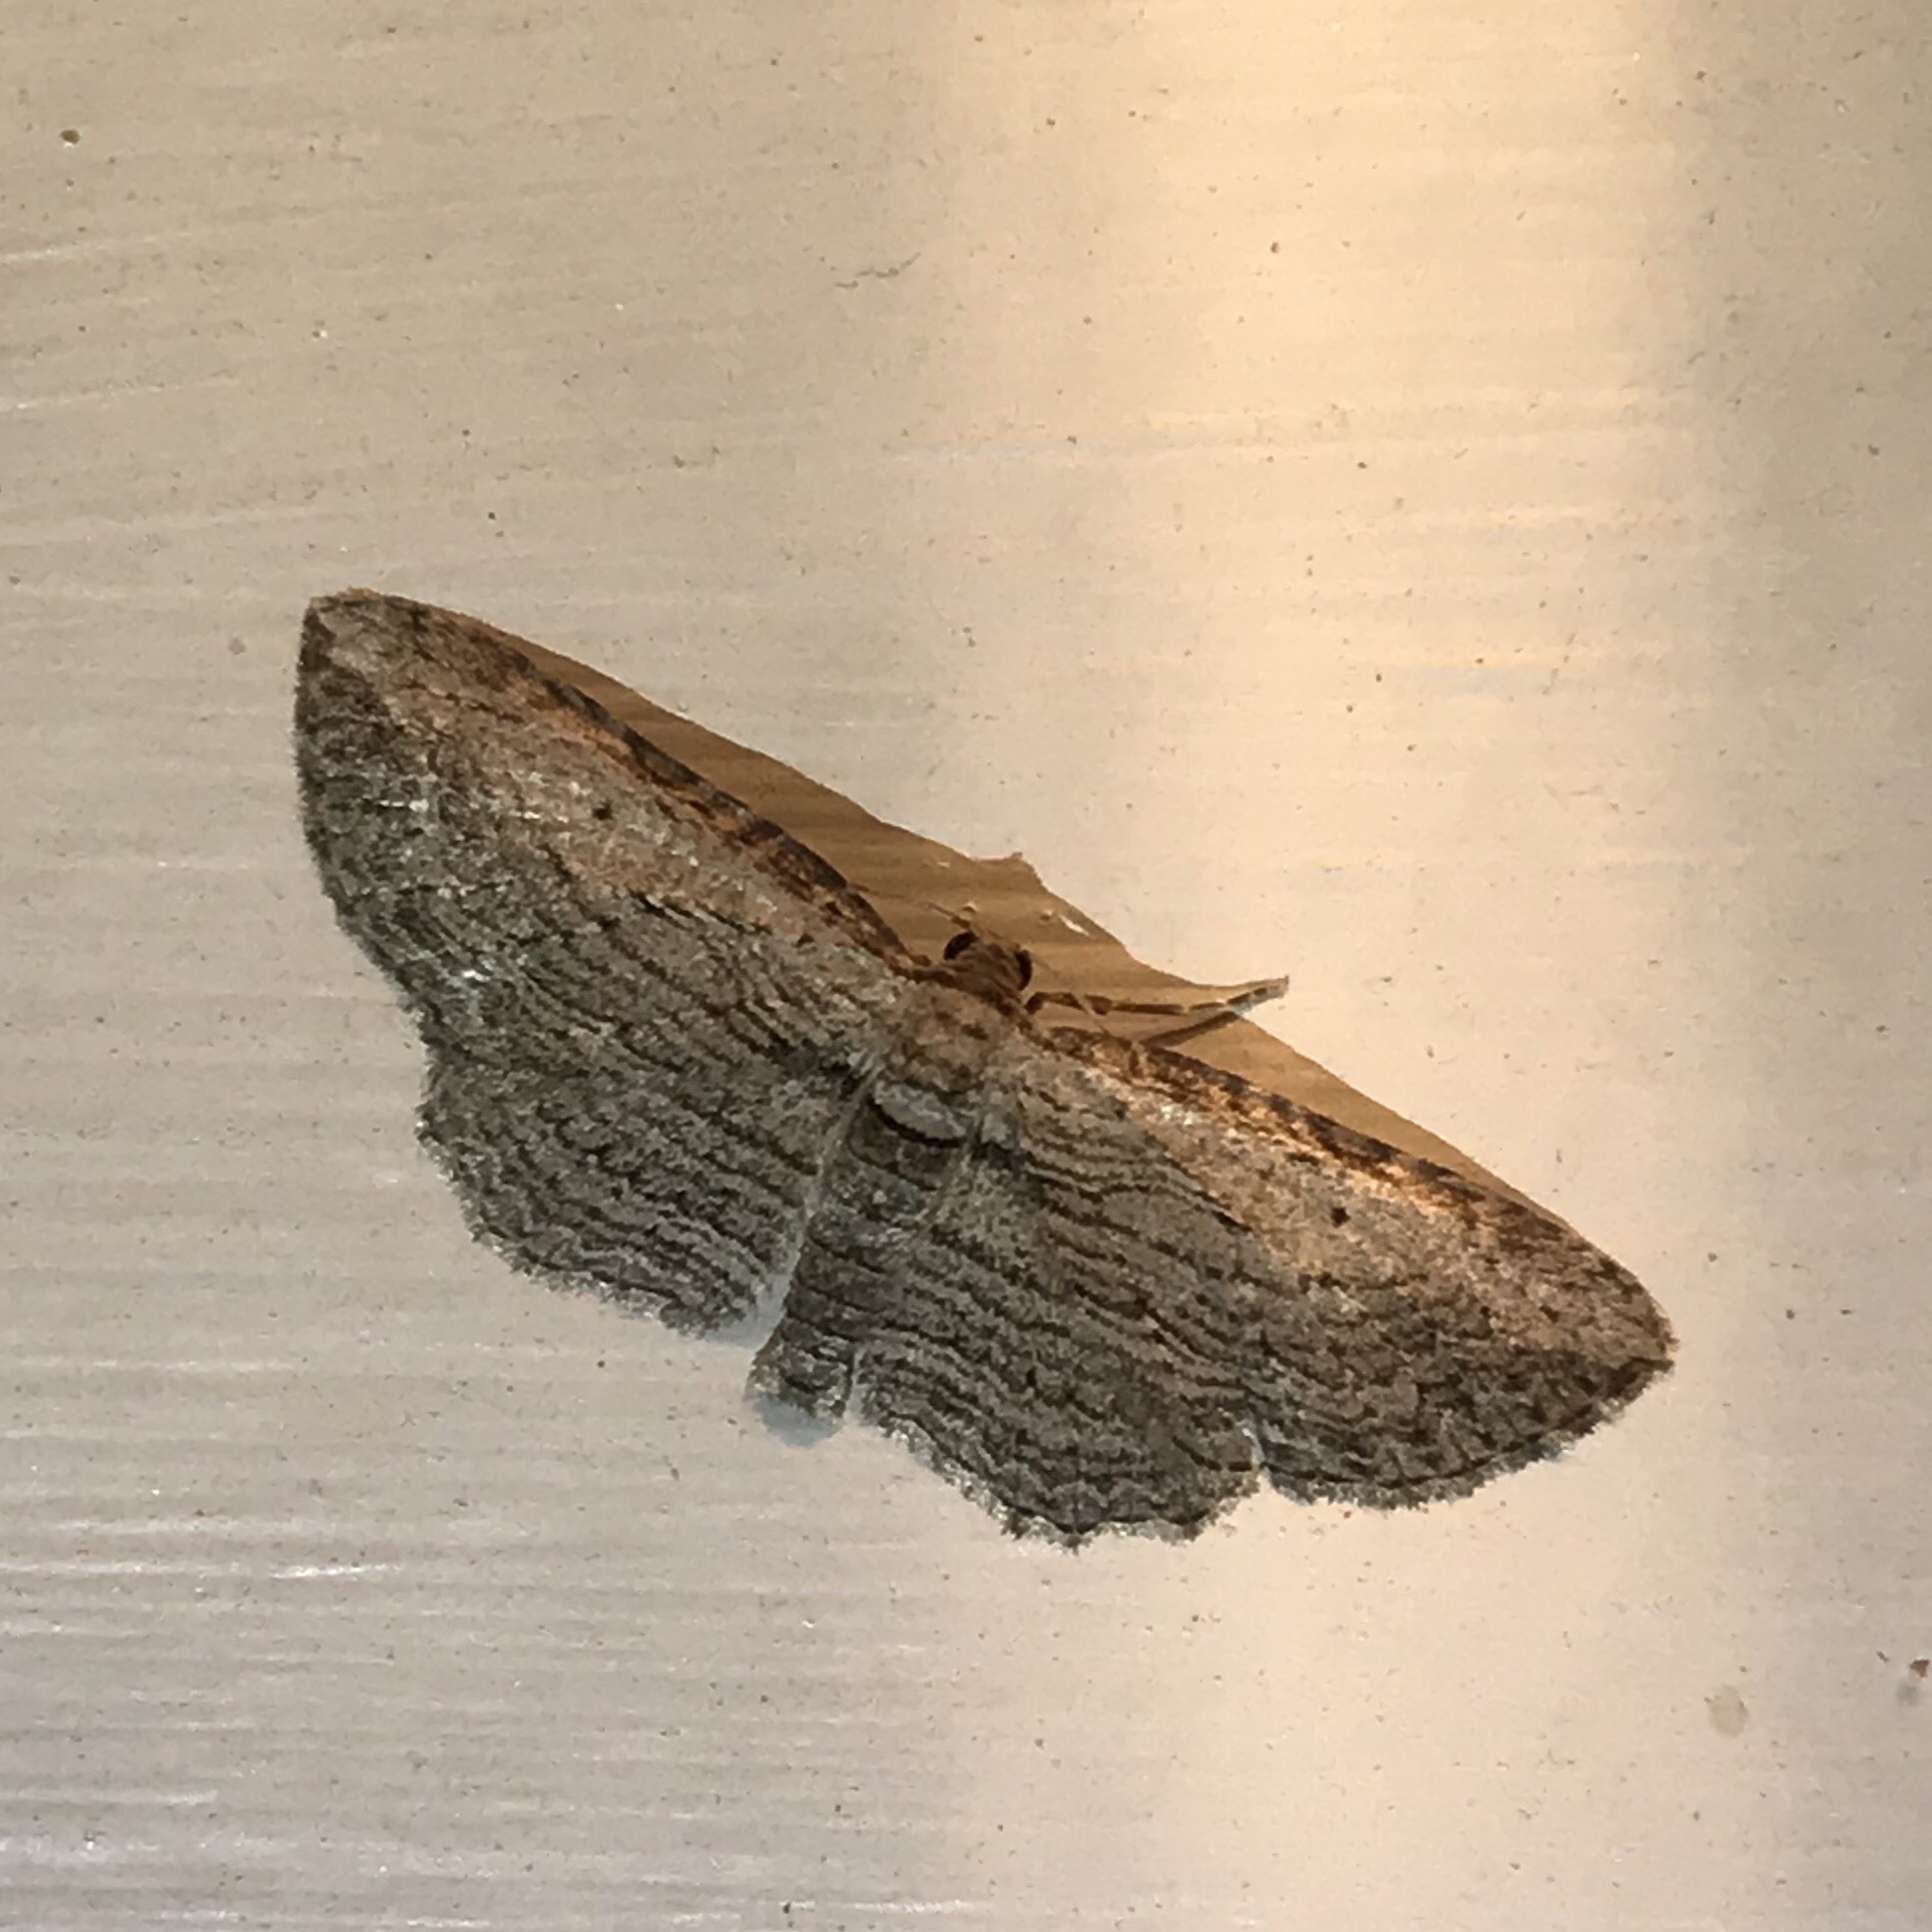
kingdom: Animalia
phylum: Arthropoda
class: Insecta
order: Lepidoptera
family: Geometridae
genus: Horisme
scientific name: Horisme intestinata
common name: Brown bark carpet
